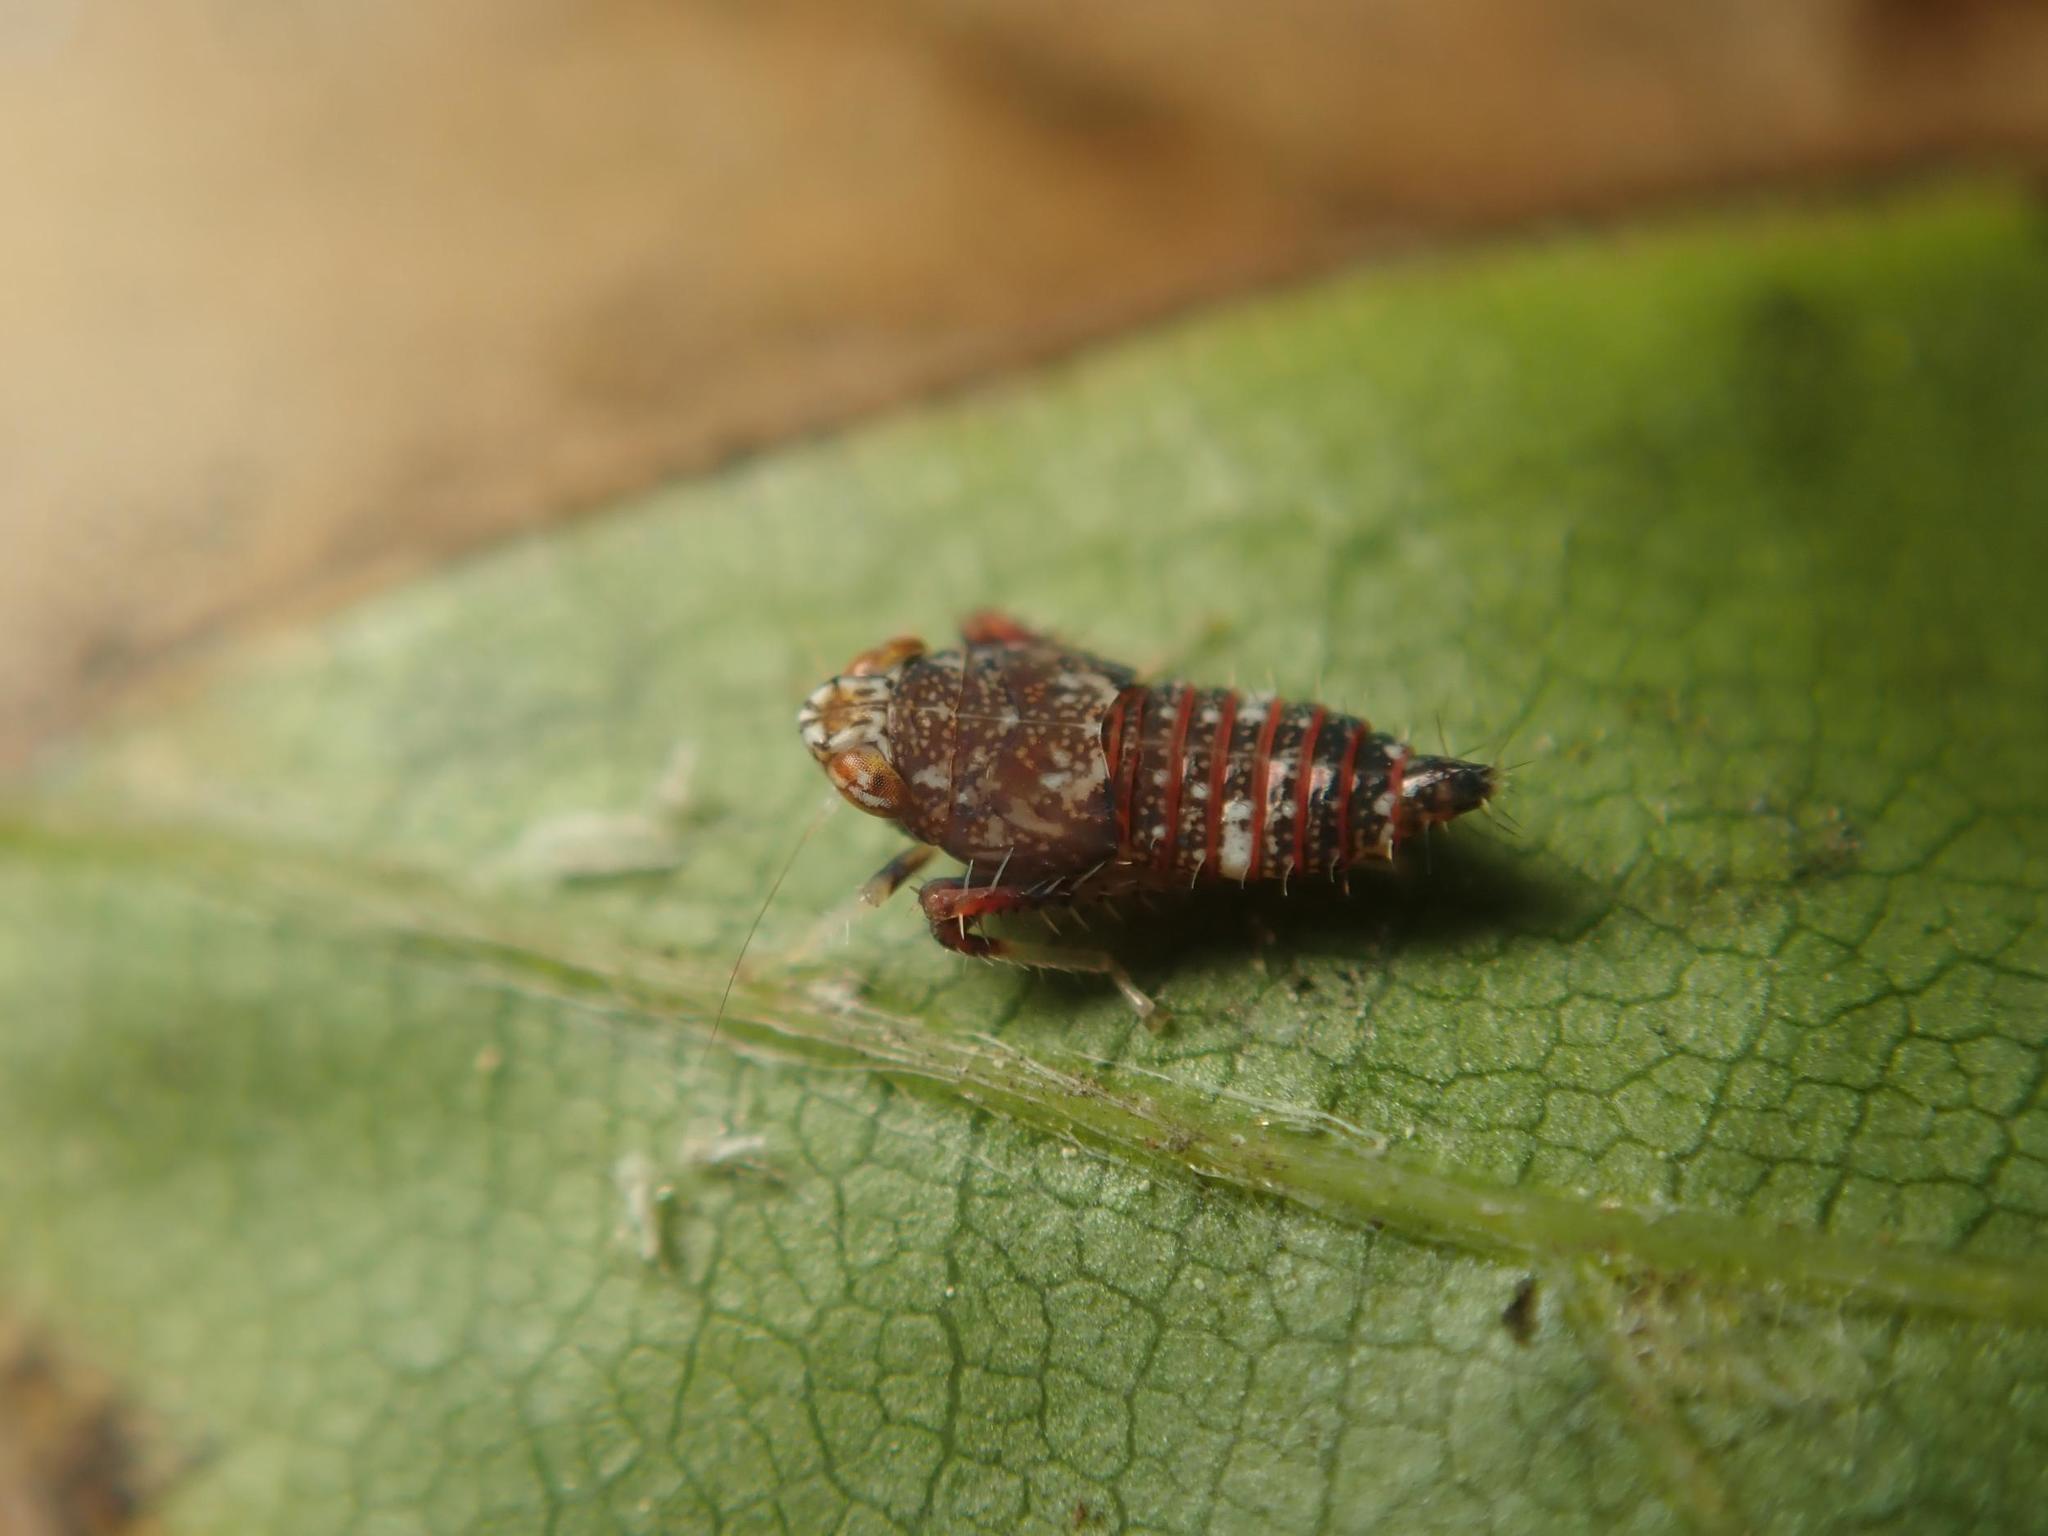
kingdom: Animalia
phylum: Arthropoda
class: Insecta
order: Hemiptera
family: Cicadellidae
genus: Orientus
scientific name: Orientus ishidae
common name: Japanese leafhopper
